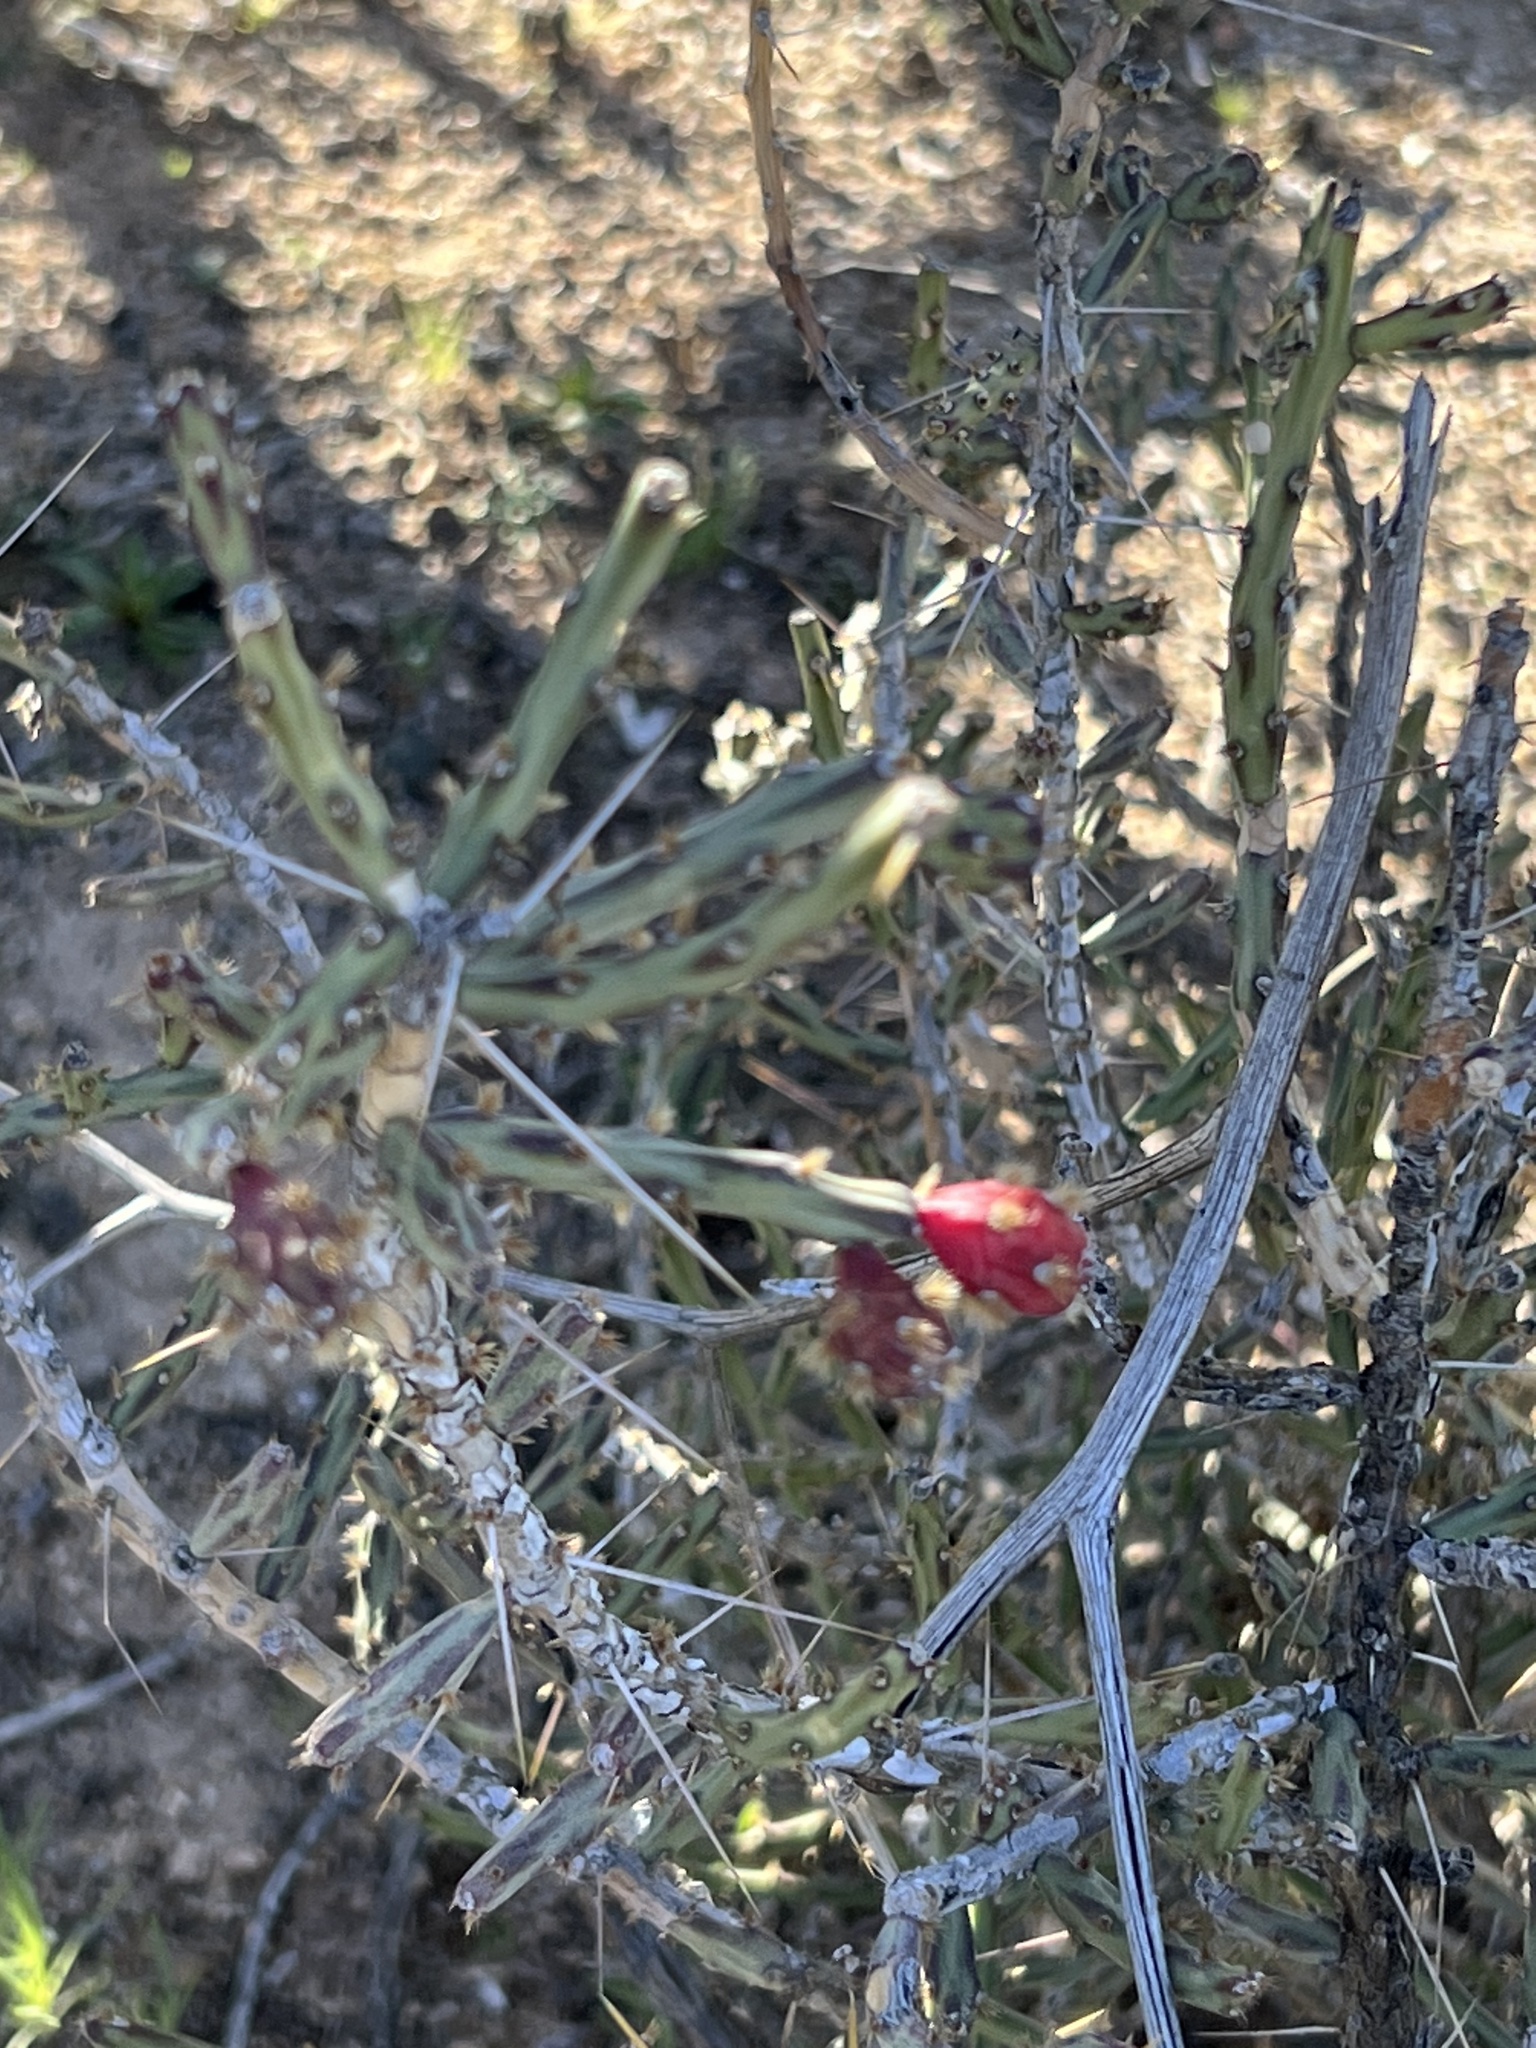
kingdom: Plantae
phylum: Tracheophyta
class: Magnoliopsida
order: Caryophyllales
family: Cactaceae
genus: Cylindropuntia
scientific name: Cylindropuntia leptocaulis
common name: Christmas cactus
